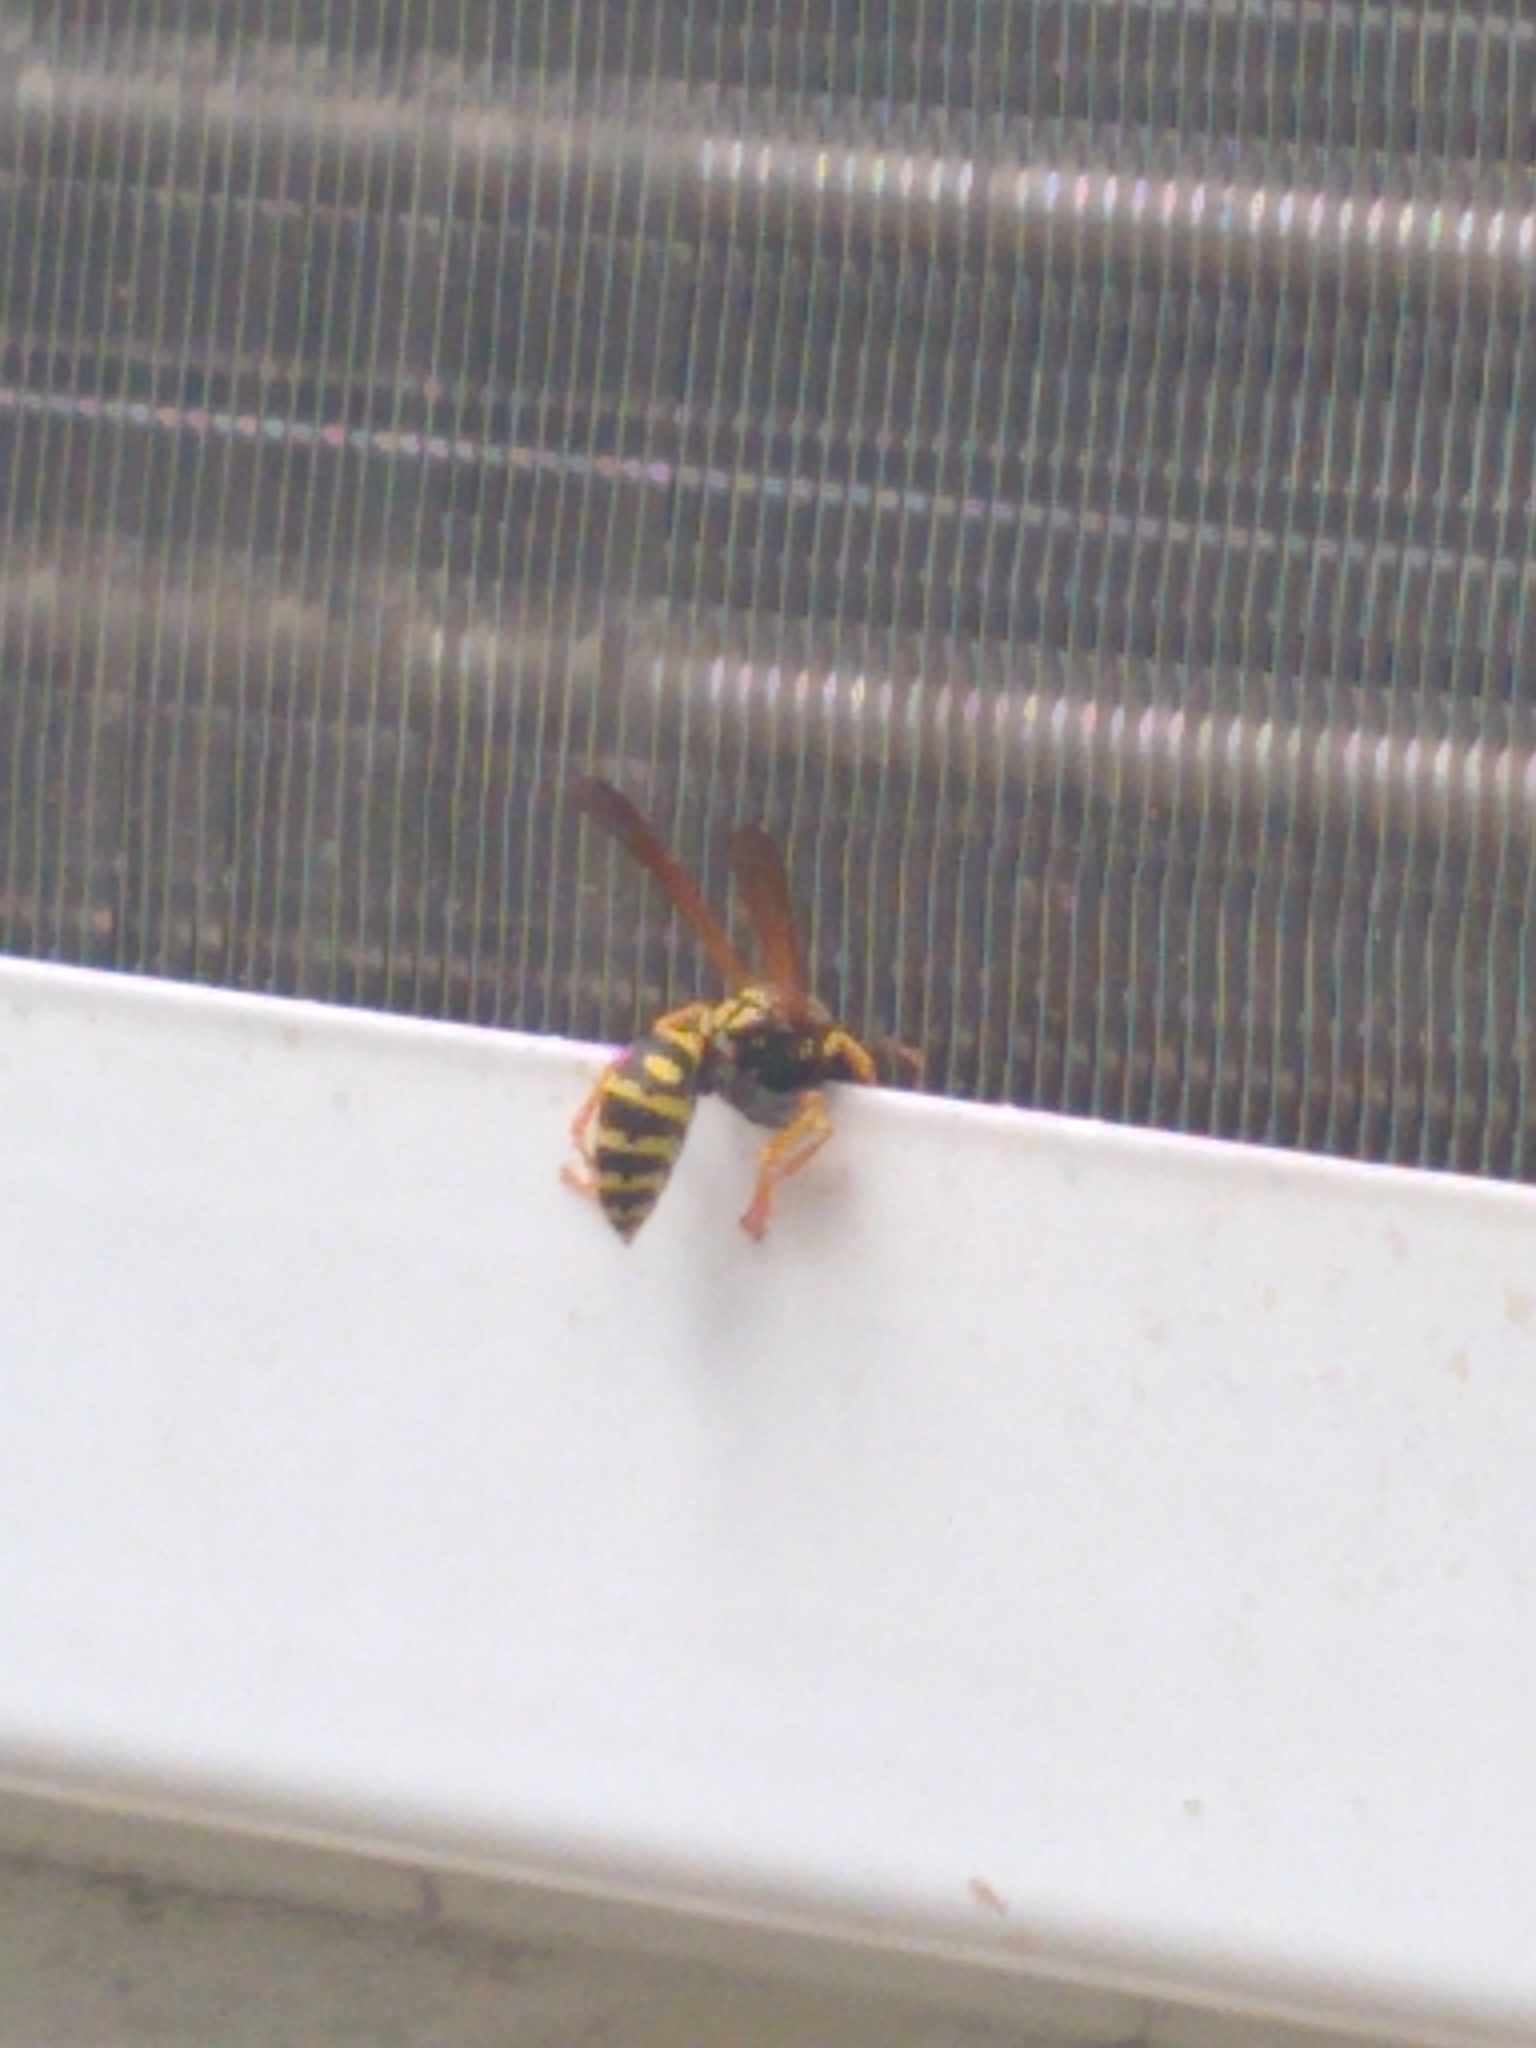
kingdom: Animalia
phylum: Arthropoda
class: Insecta
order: Hymenoptera
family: Eumenidae
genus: Polistes
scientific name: Polistes dominula
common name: Paper wasp
